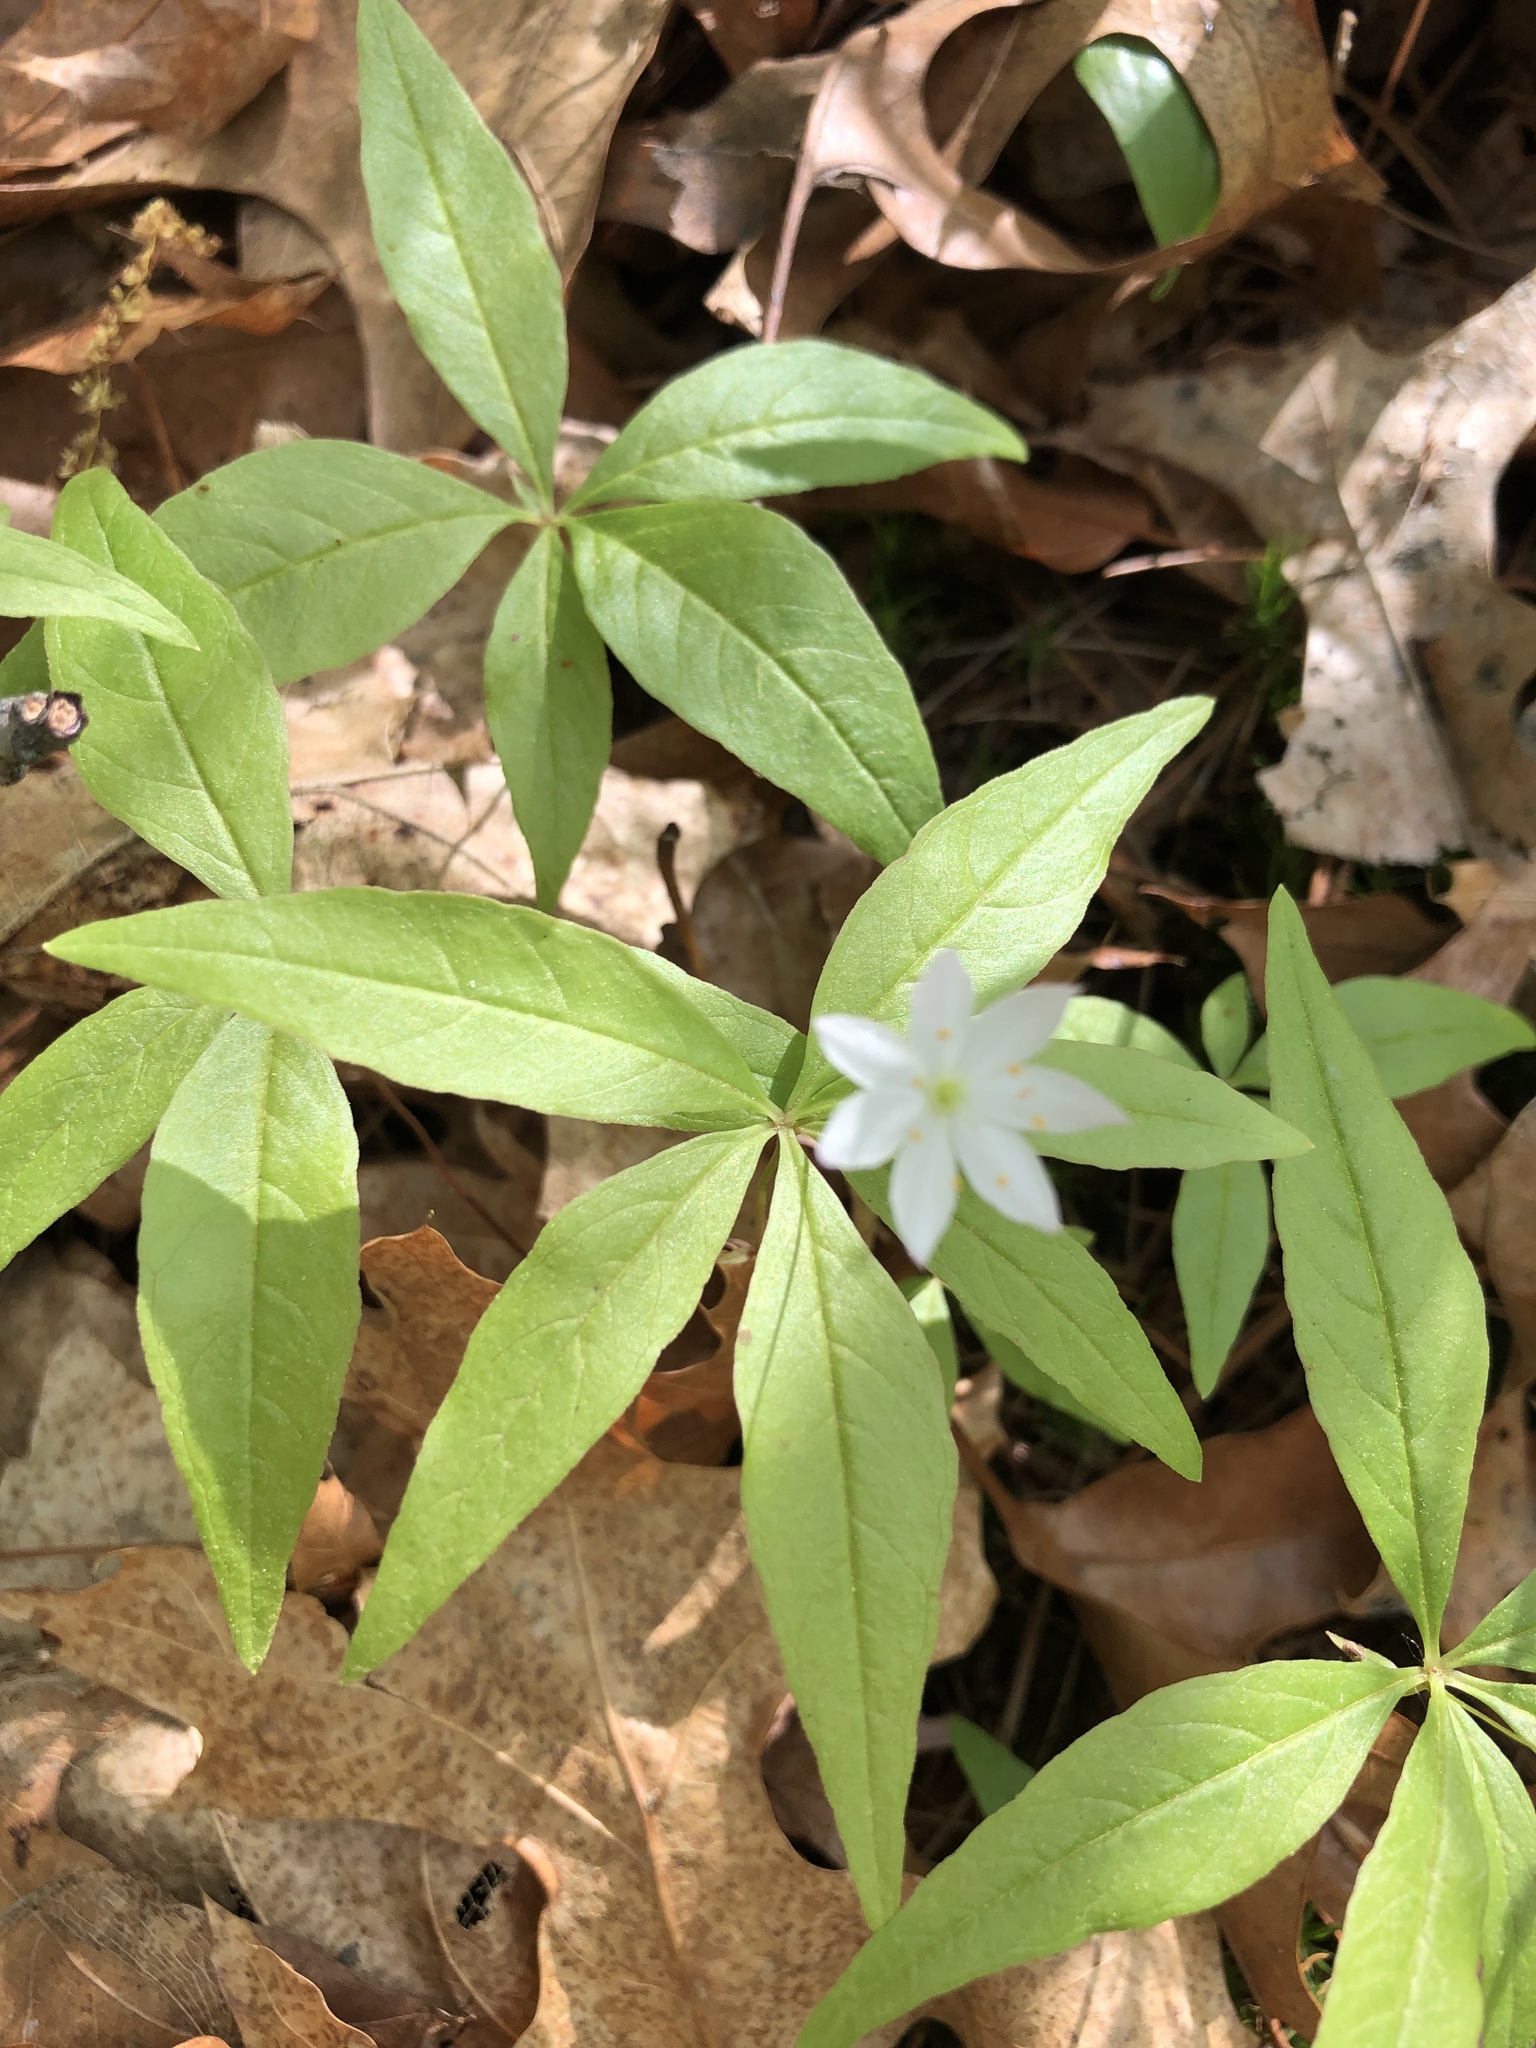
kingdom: Plantae
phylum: Tracheophyta
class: Magnoliopsida
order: Ericales
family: Primulaceae
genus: Lysimachia
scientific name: Lysimachia borealis
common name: American starflower
